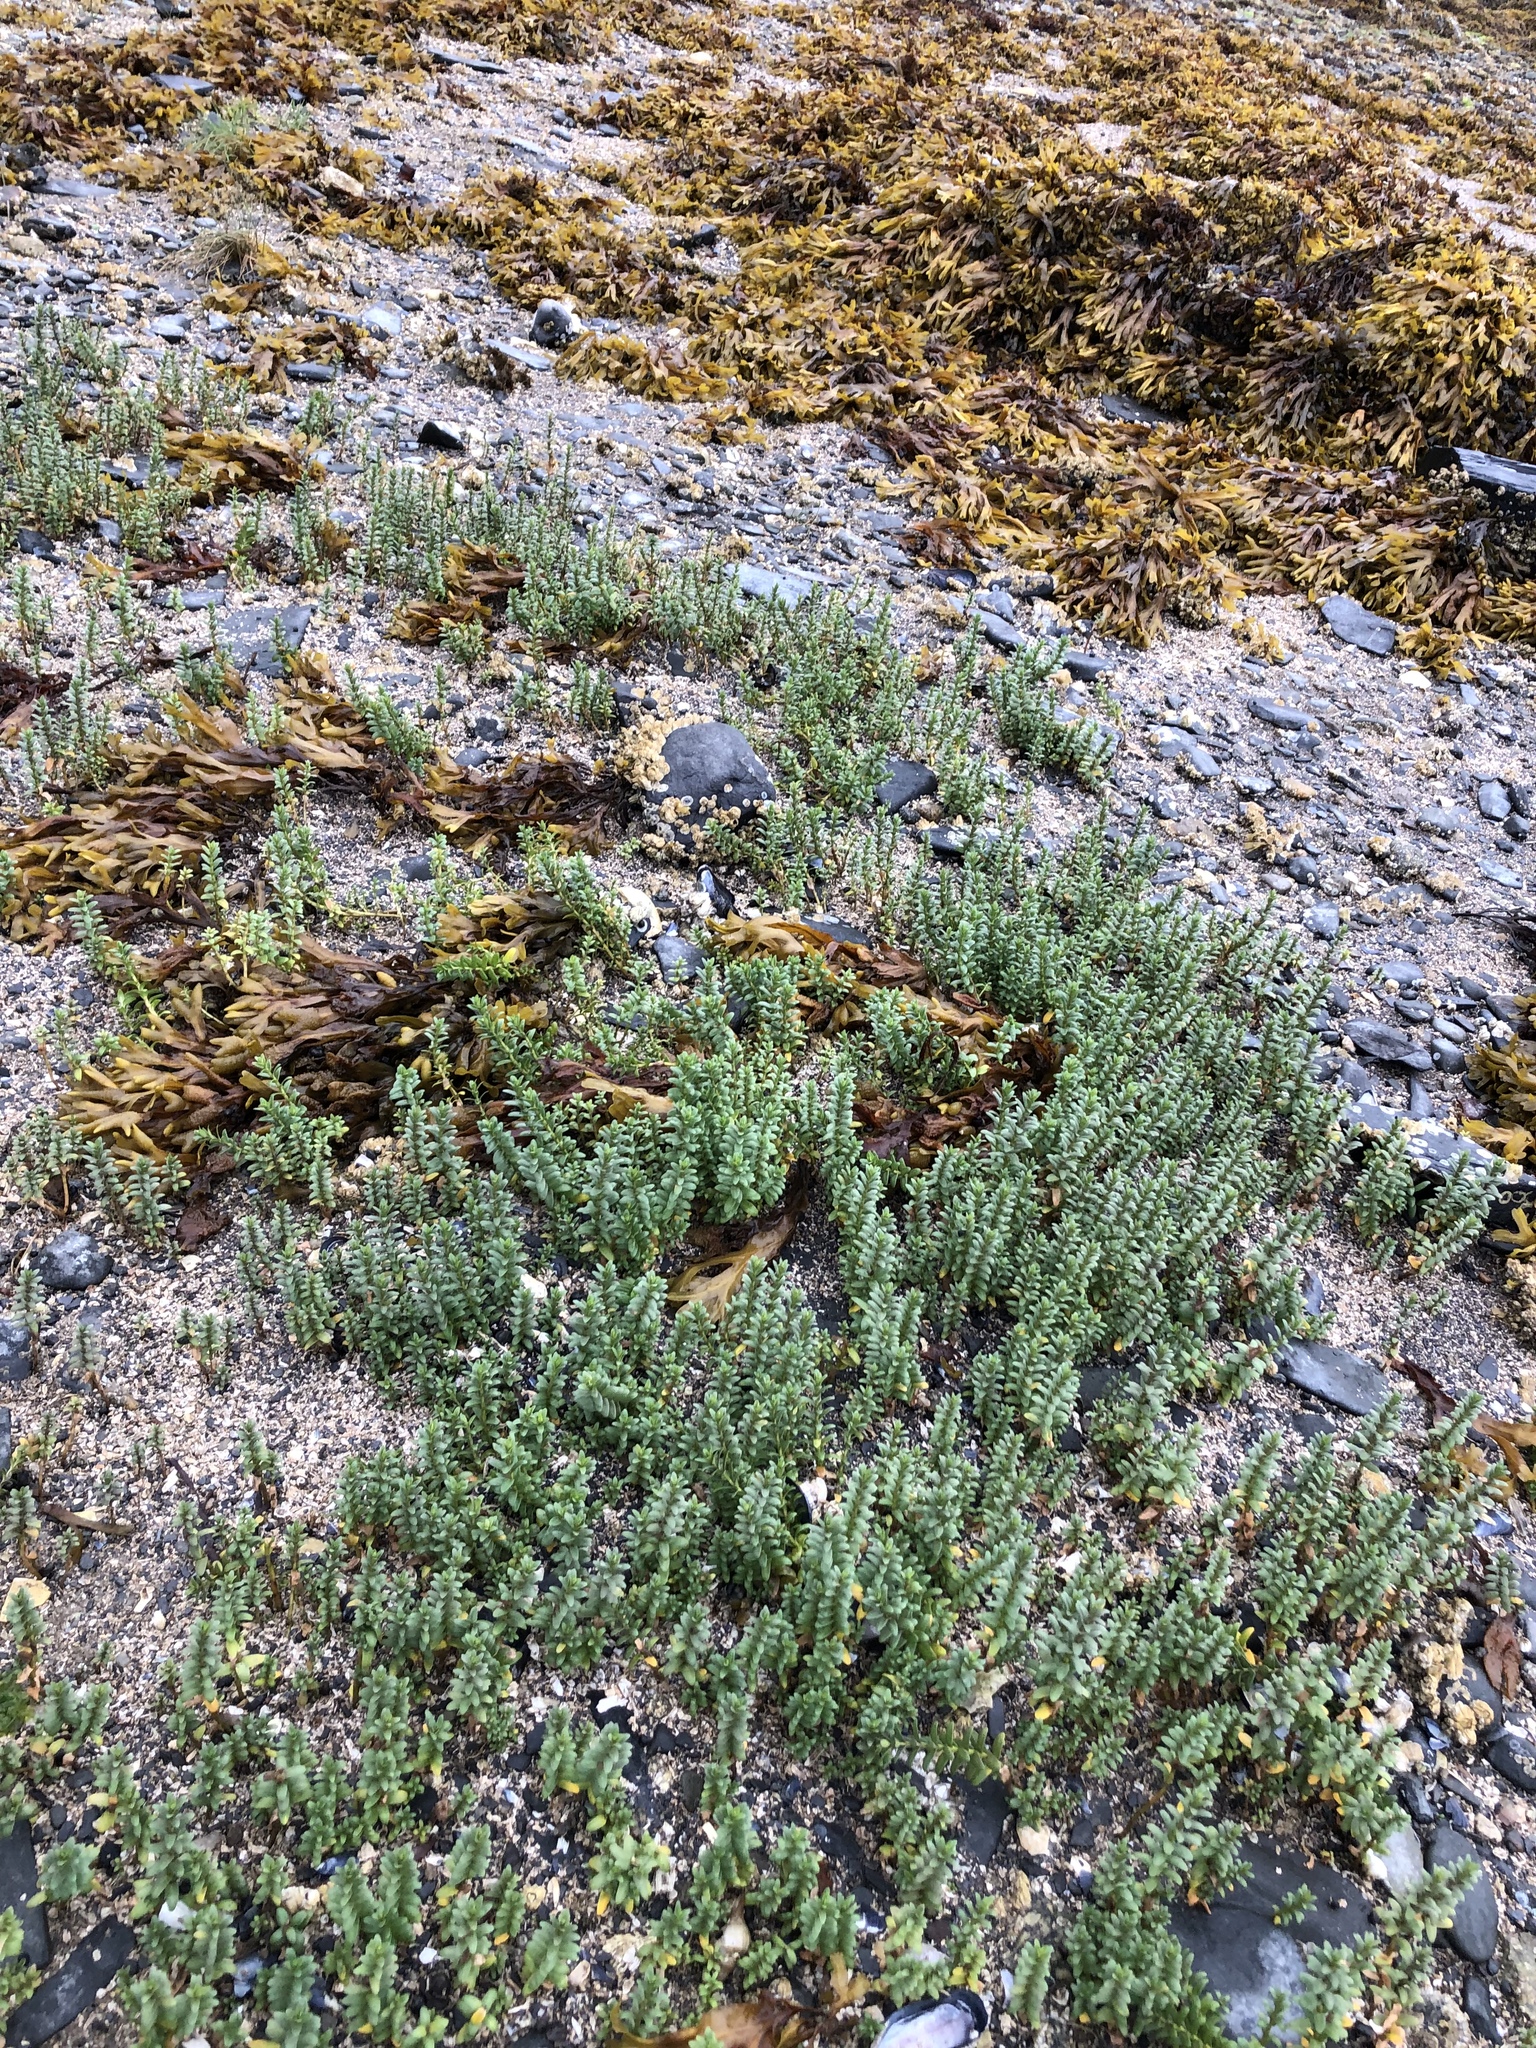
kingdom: Plantae
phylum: Tracheophyta
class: Magnoliopsida
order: Caryophyllales
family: Caryophyllaceae
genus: Honckenya
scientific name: Honckenya peploides
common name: Sea sandwort
